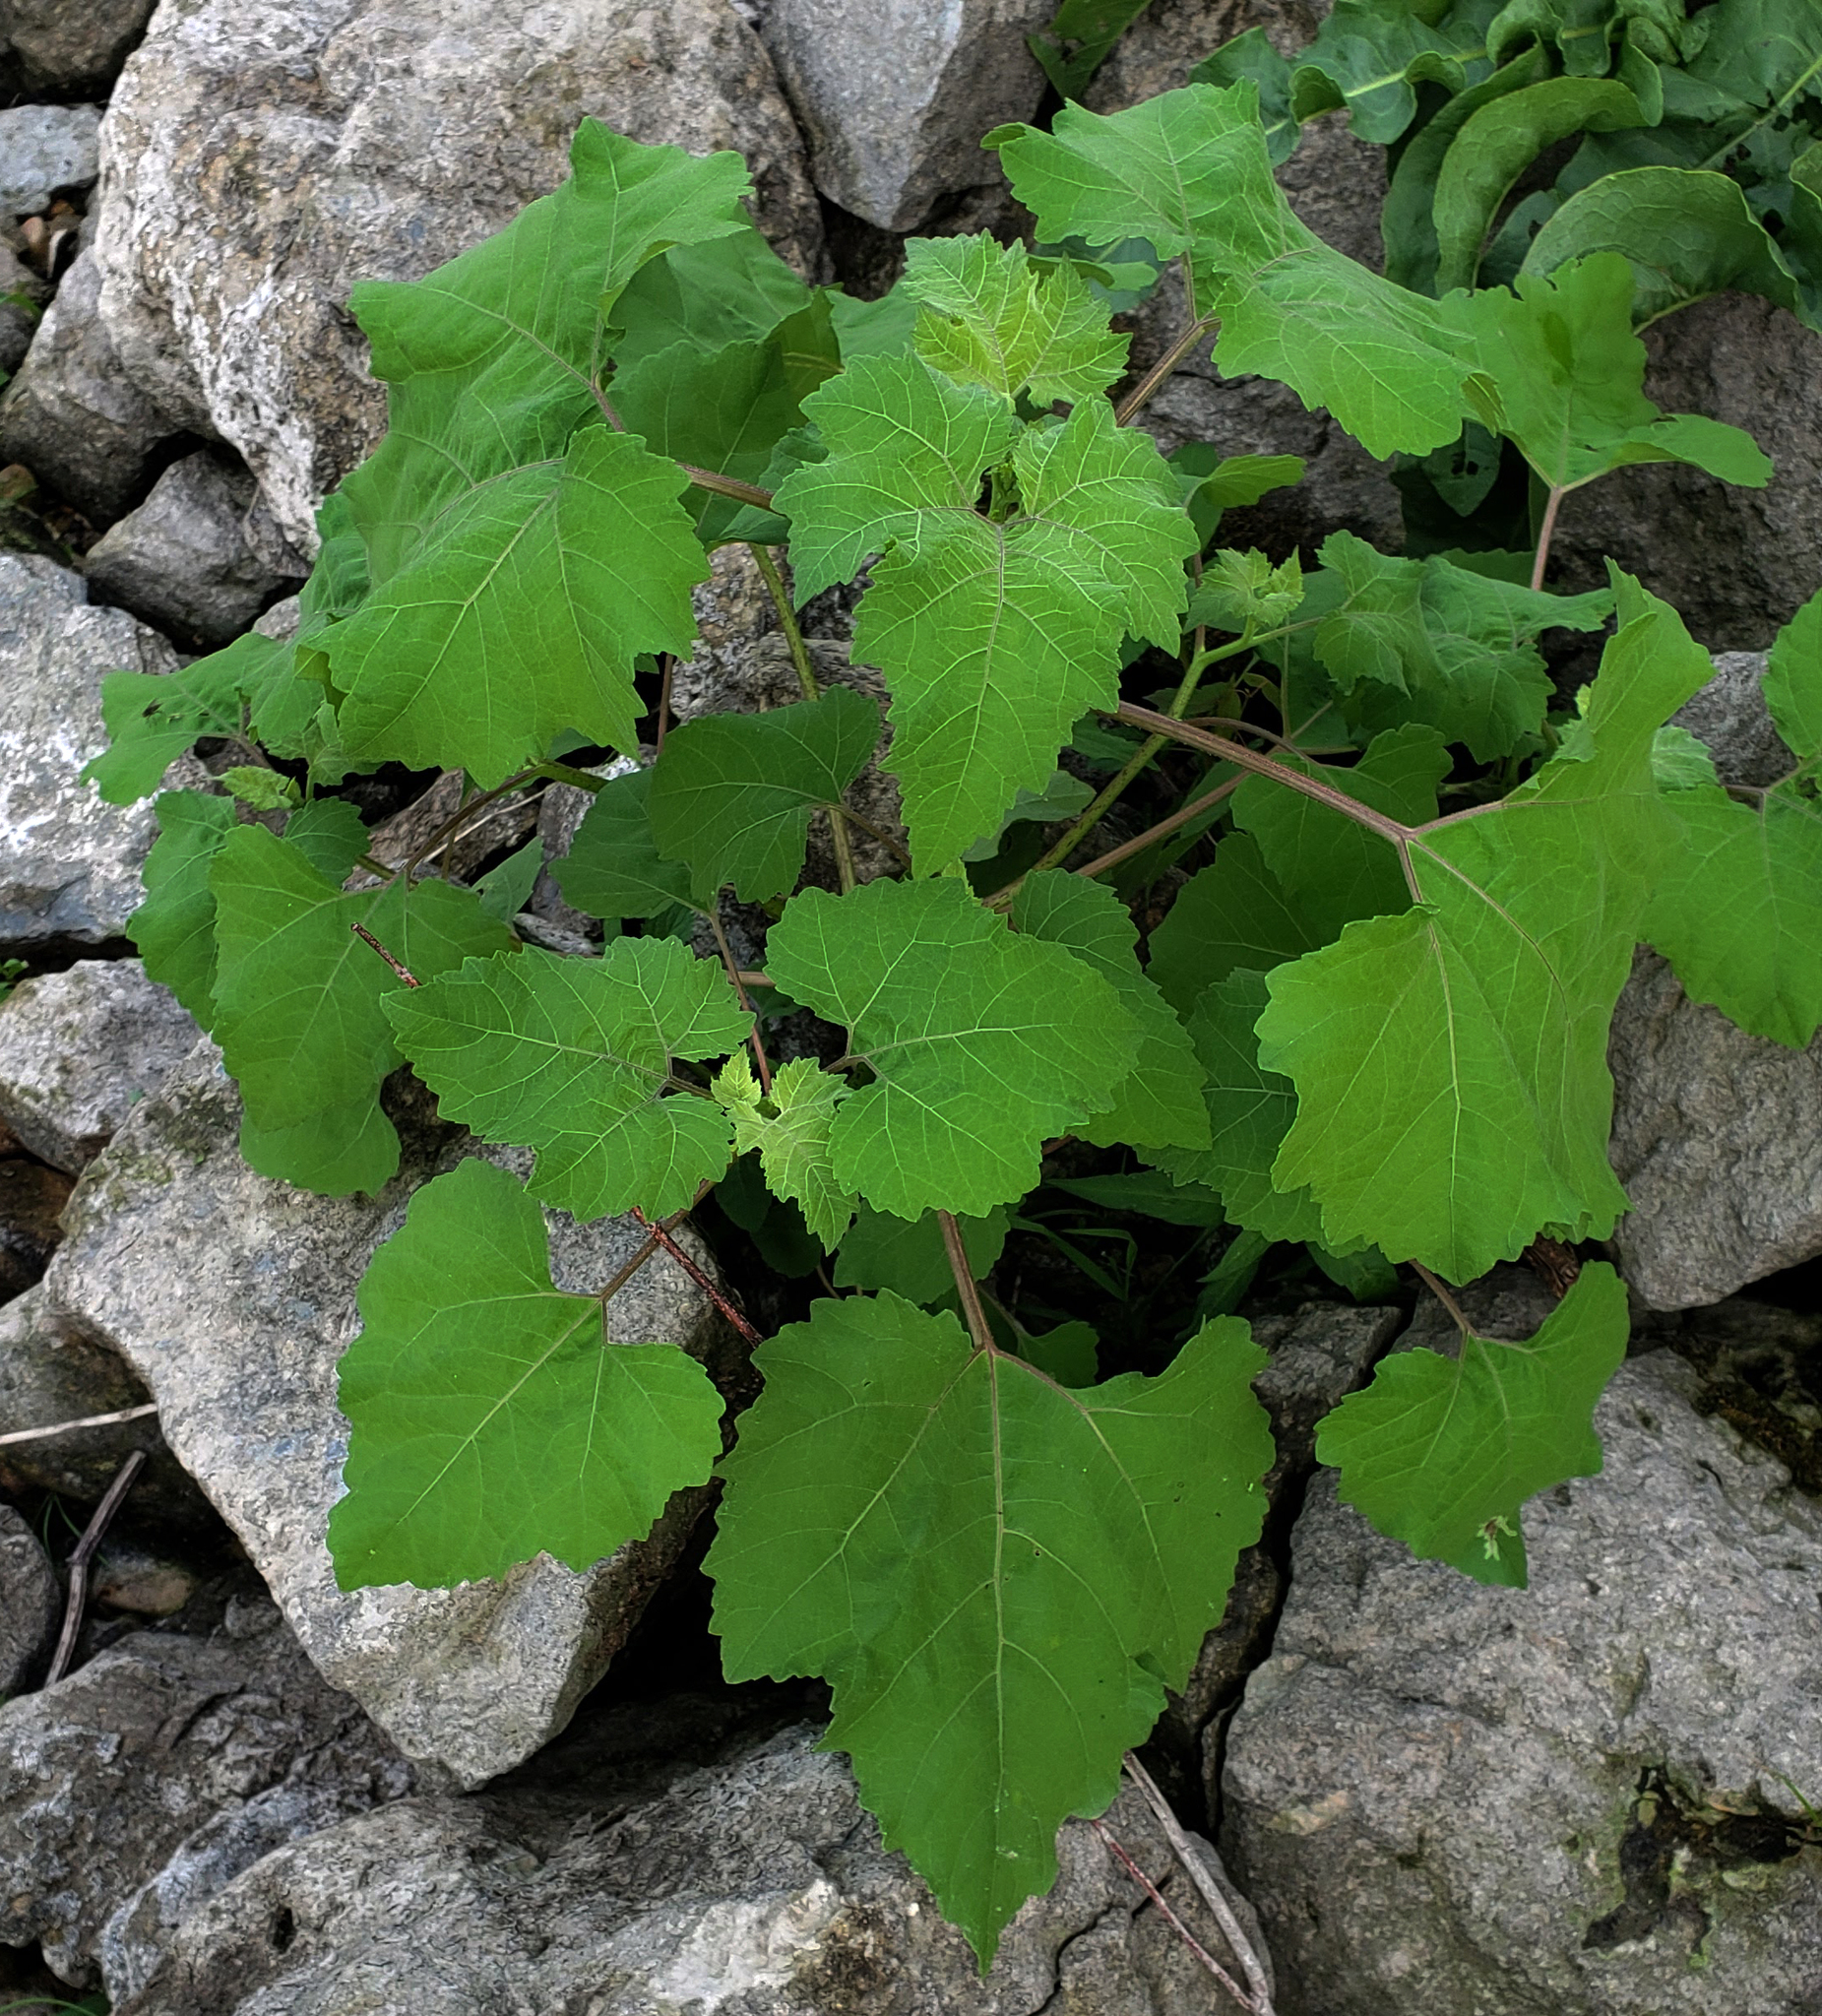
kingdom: Plantae
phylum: Tracheophyta
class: Magnoliopsida
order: Asterales
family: Asteraceae
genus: Xanthium
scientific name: Xanthium strumarium
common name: Rough cocklebur
